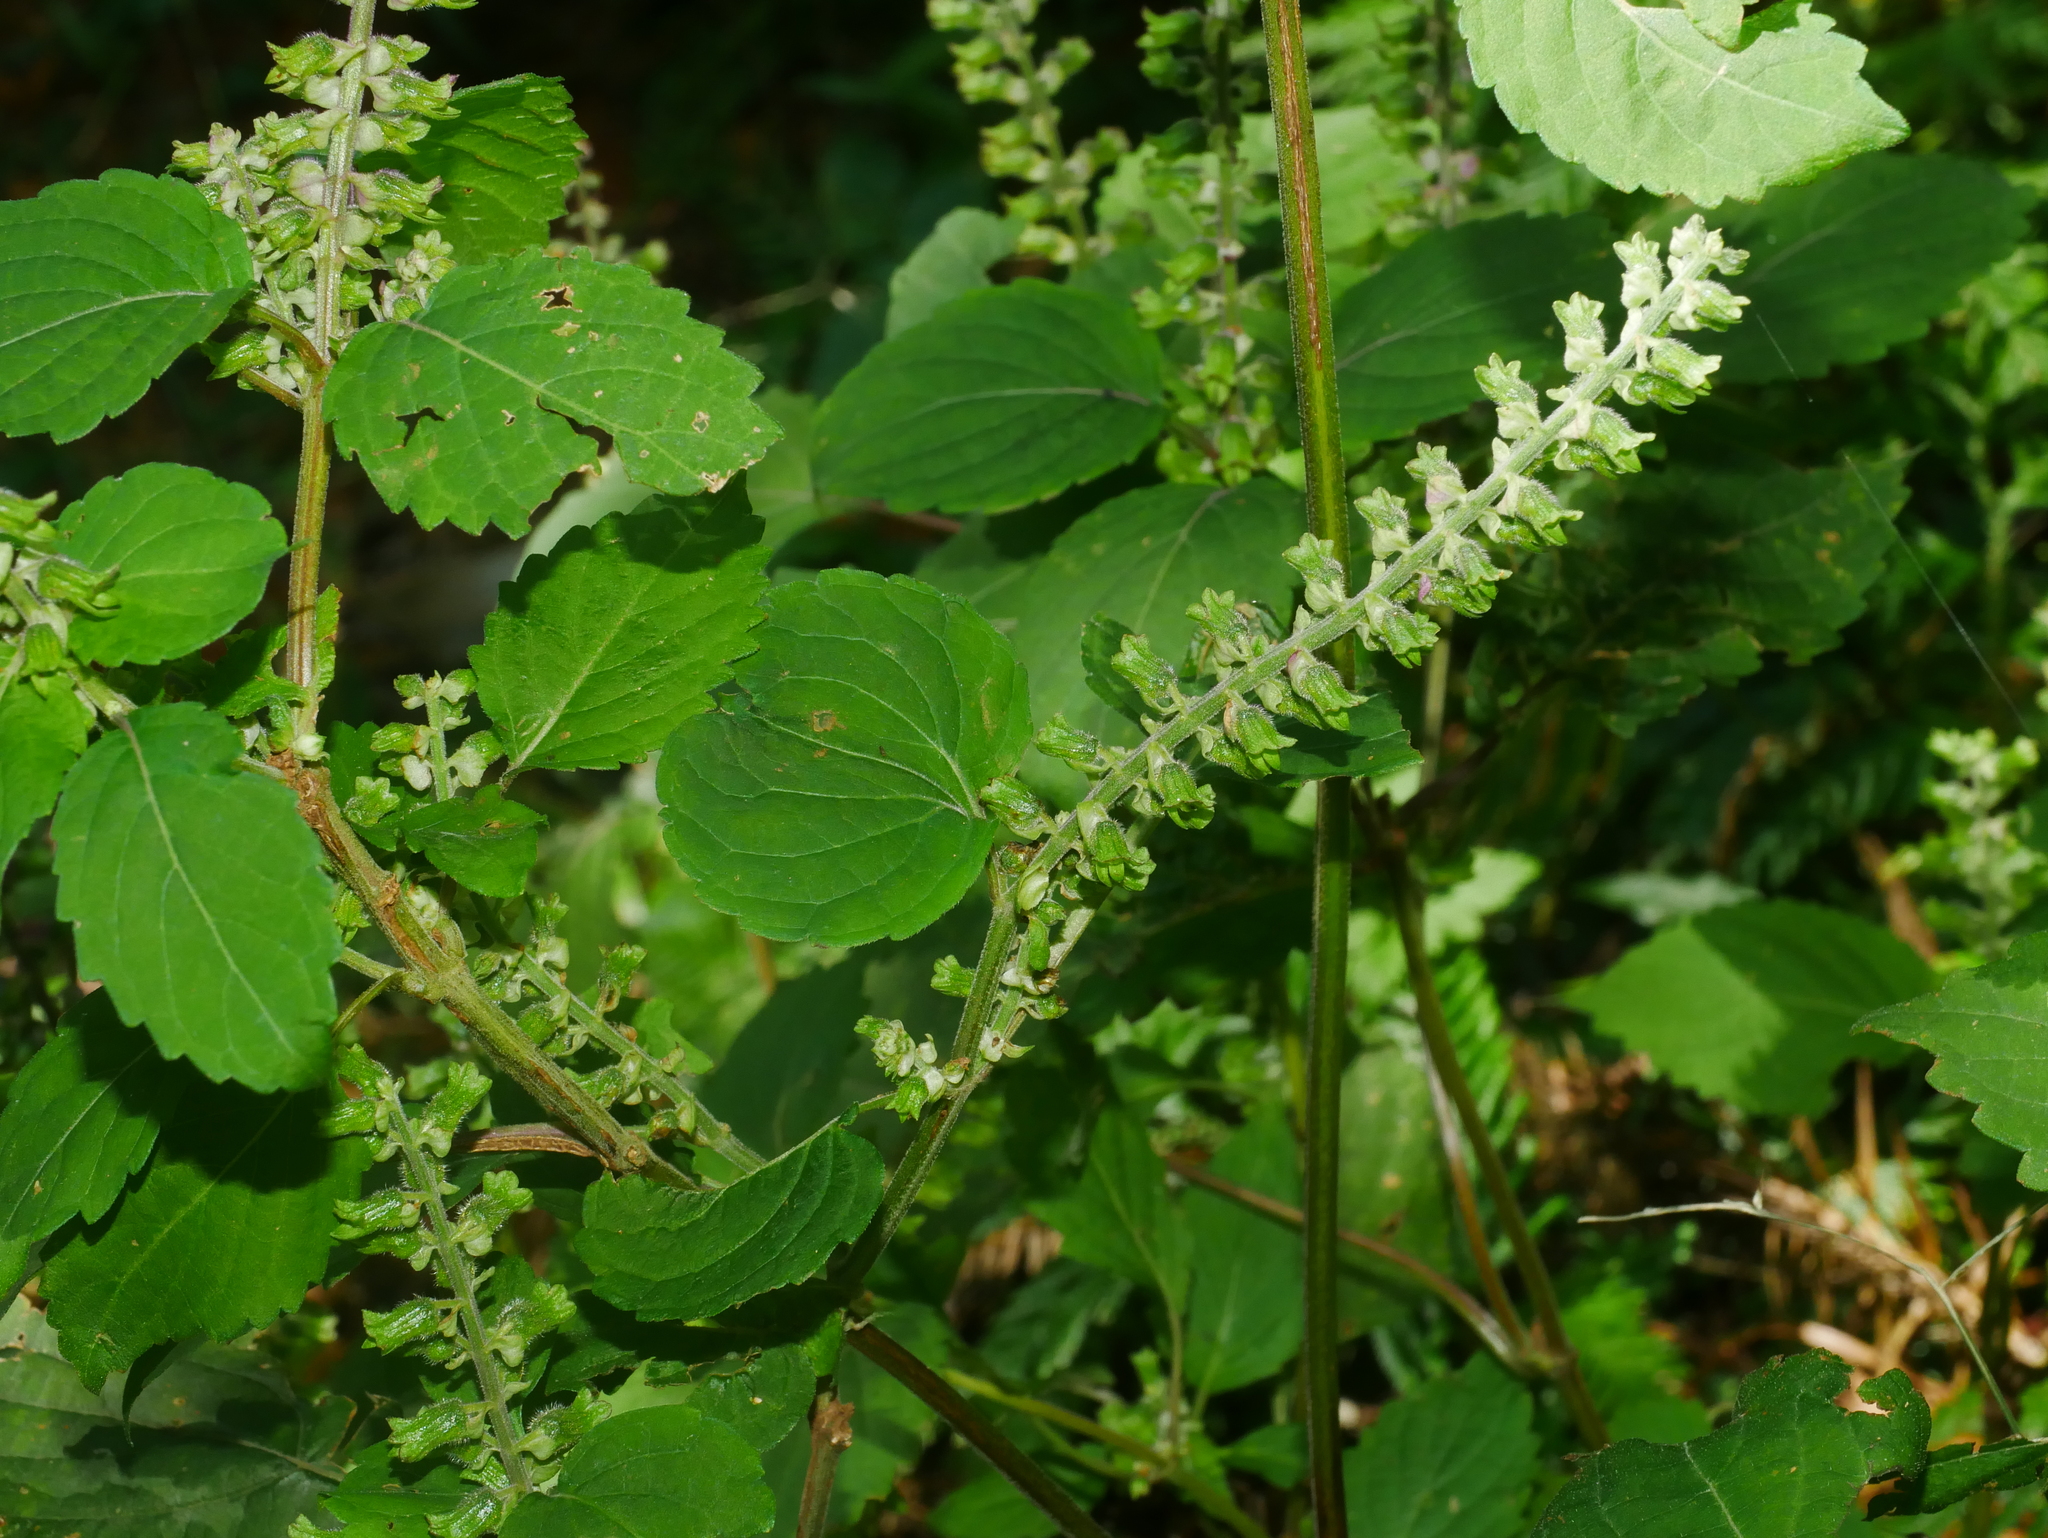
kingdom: Plantae
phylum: Tracheophyta
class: Magnoliopsida
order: Lamiales
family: Lamiaceae
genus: Perilla
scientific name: Perilla frutescens
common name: Perilla
